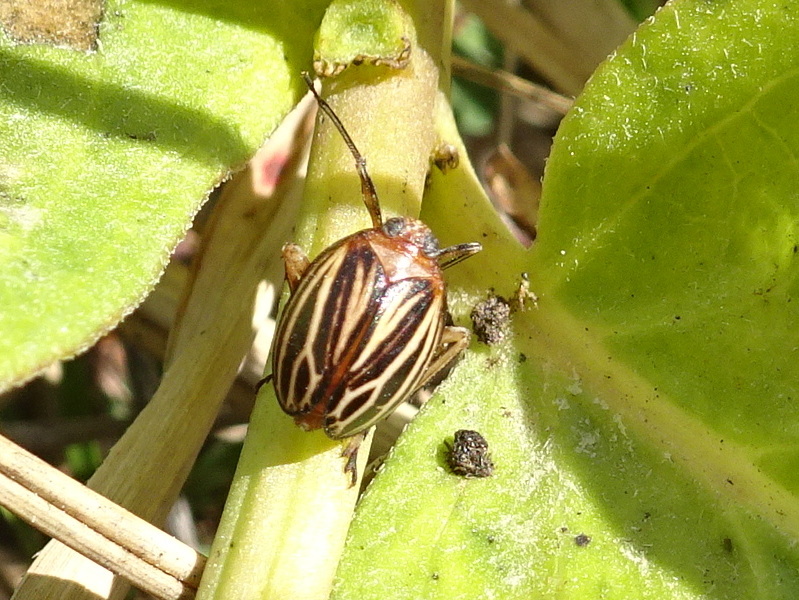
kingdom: Animalia
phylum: Arthropoda
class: Insecta
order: Hemiptera
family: Achilidae
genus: Isodaemon
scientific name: Isodaemon orontes
